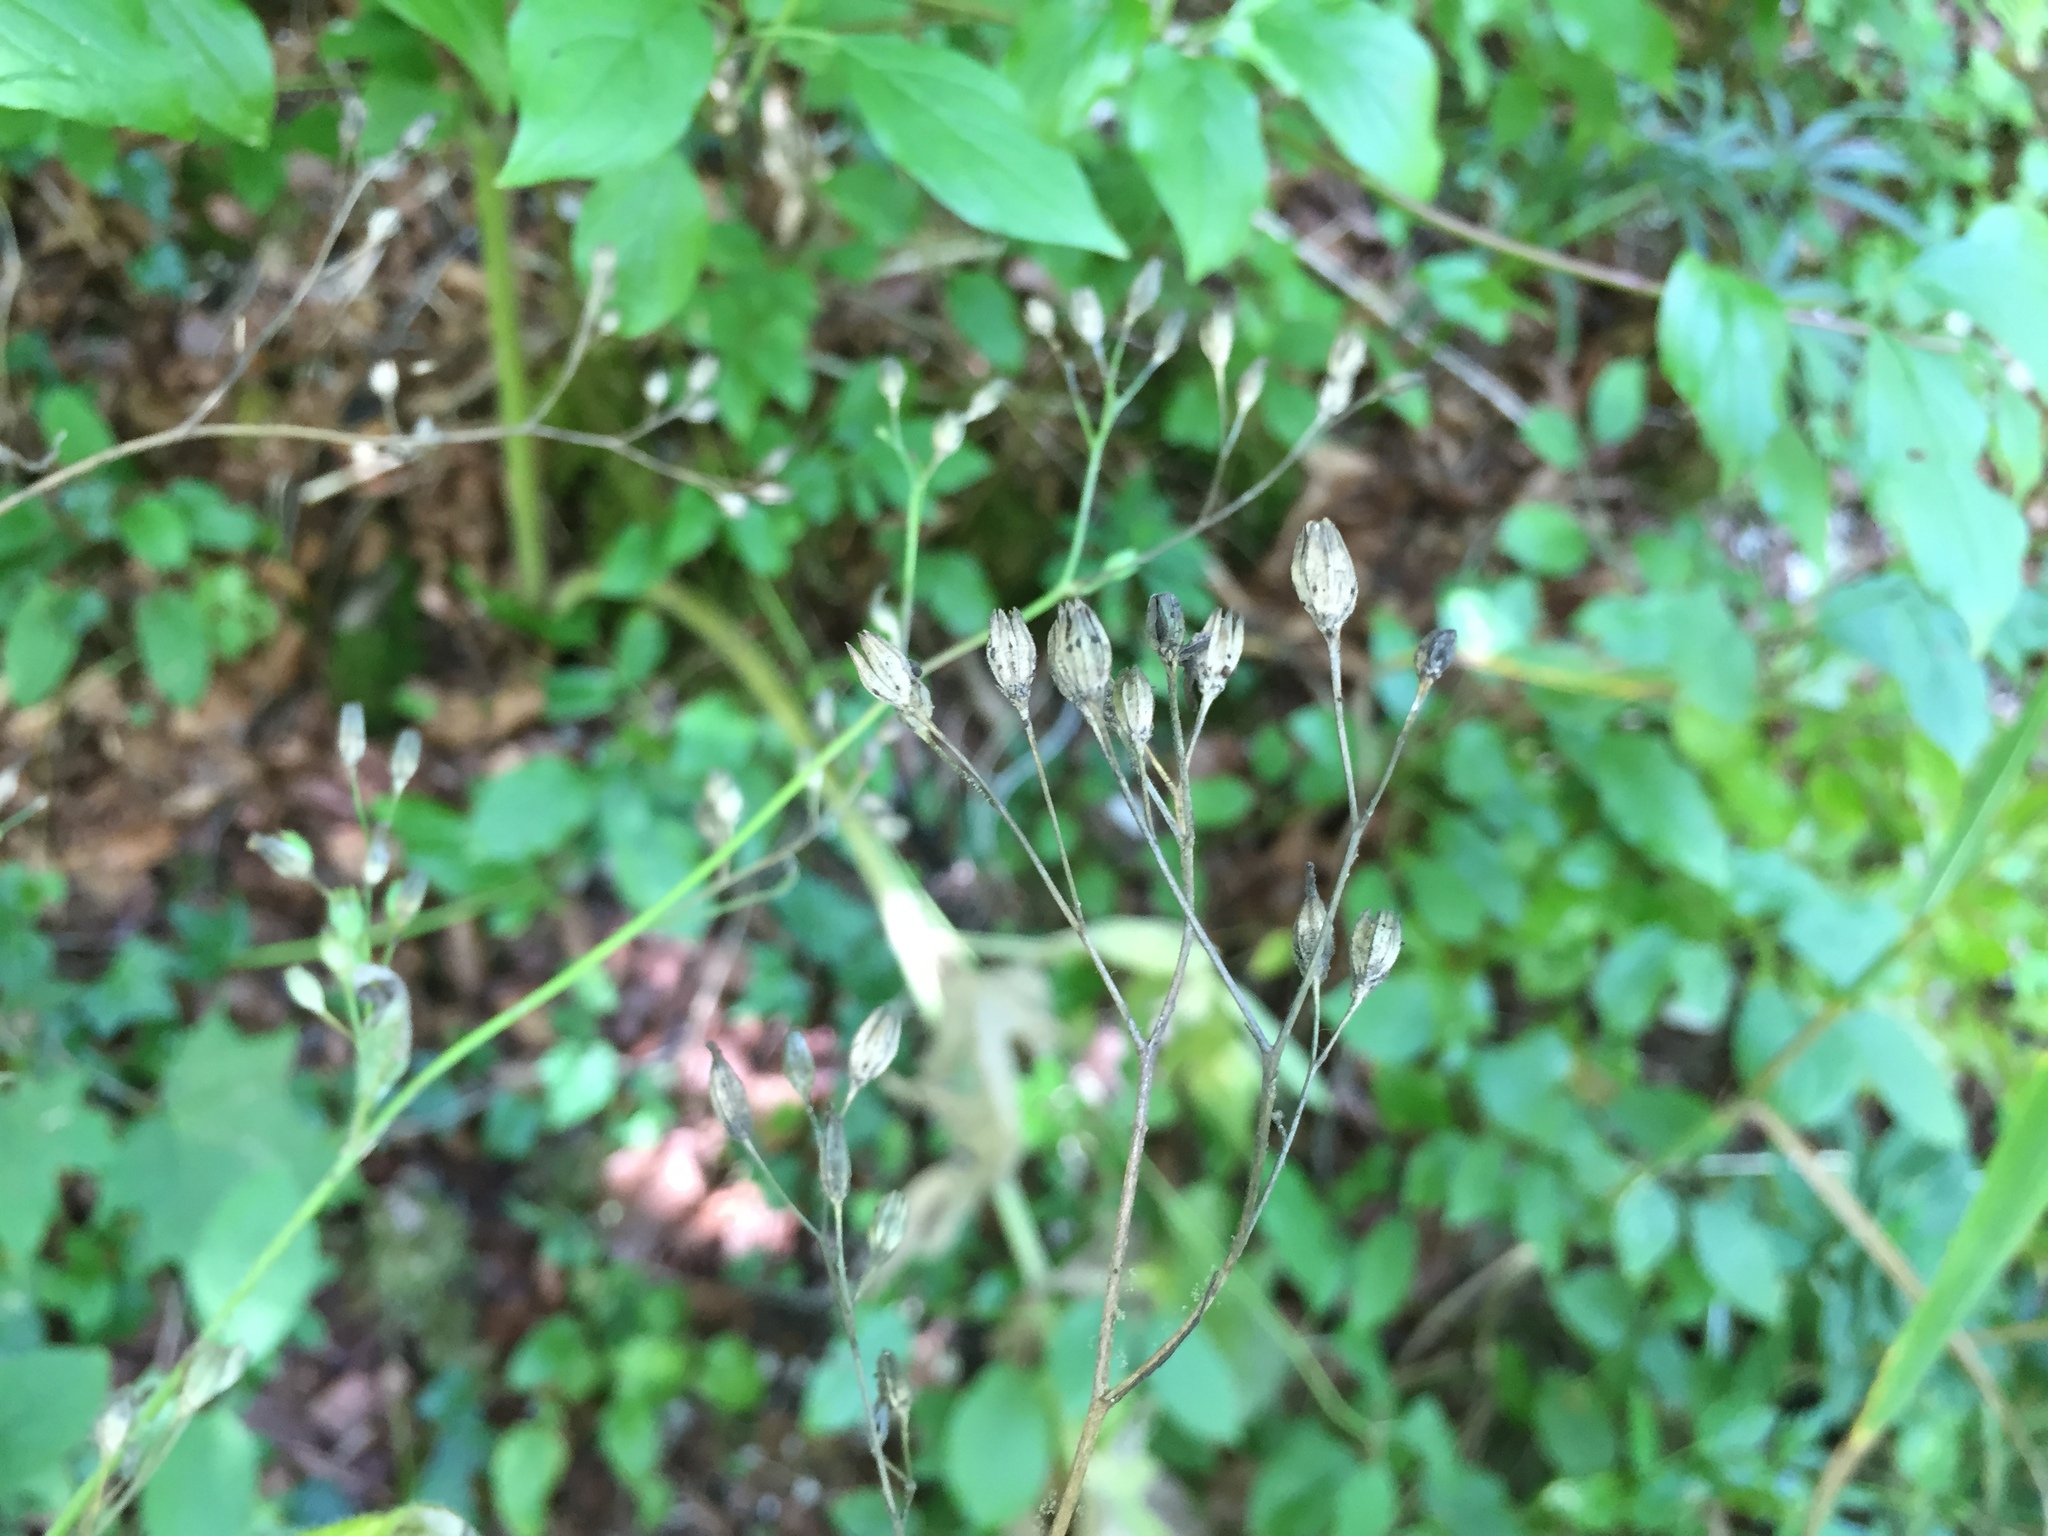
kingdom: Plantae
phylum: Tracheophyta
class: Magnoliopsida
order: Asterales
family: Asteraceae
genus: Lapsana
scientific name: Lapsana communis
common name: Nipplewort
